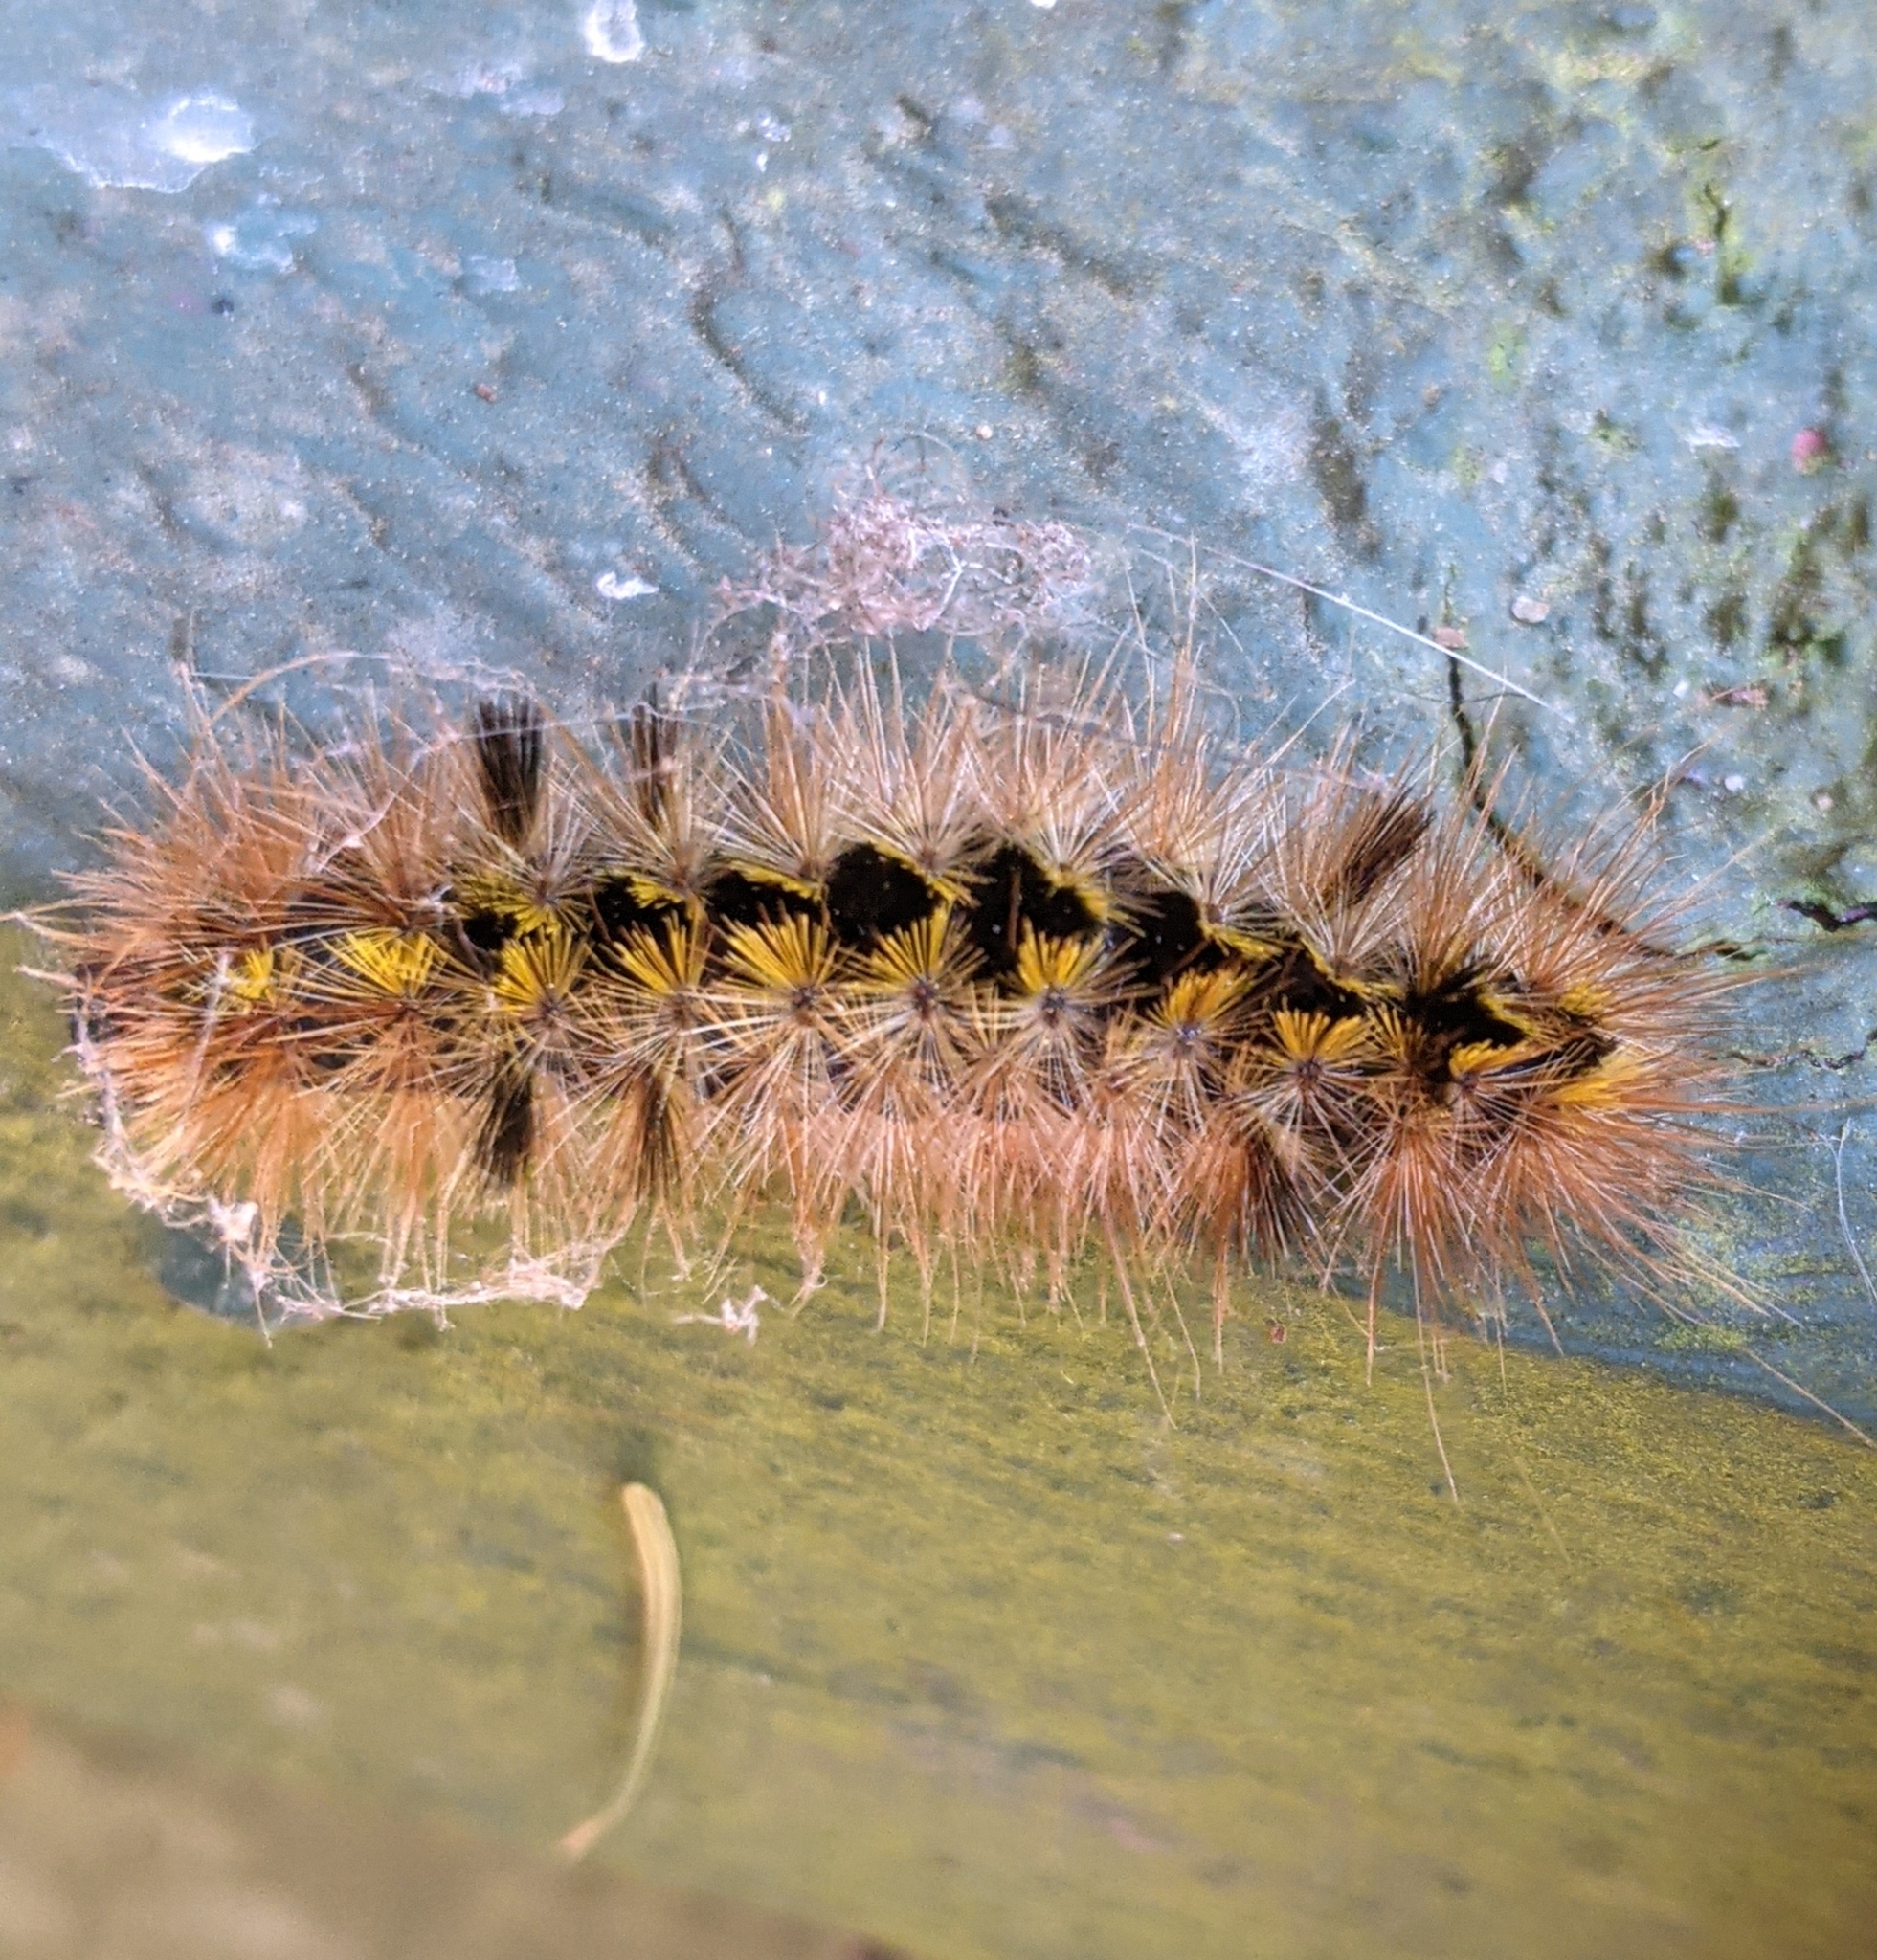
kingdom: Animalia
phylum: Arthropoda
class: Insecta
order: Lepidoptera
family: Erebidae
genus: Lophocampa
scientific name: Lophocampa argentata
